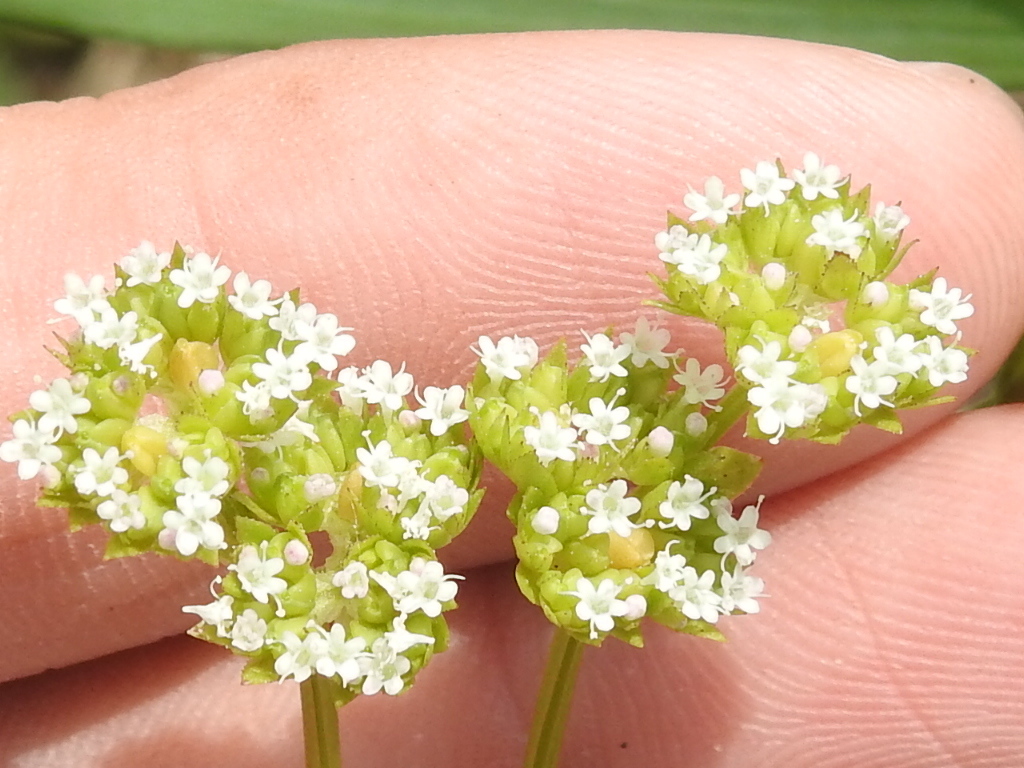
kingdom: Plantae
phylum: Tracheophyta
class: Magnoliopsida
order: Dipsacales
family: Caprifoliaceae
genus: Valerianella
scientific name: Valerianella radiata
